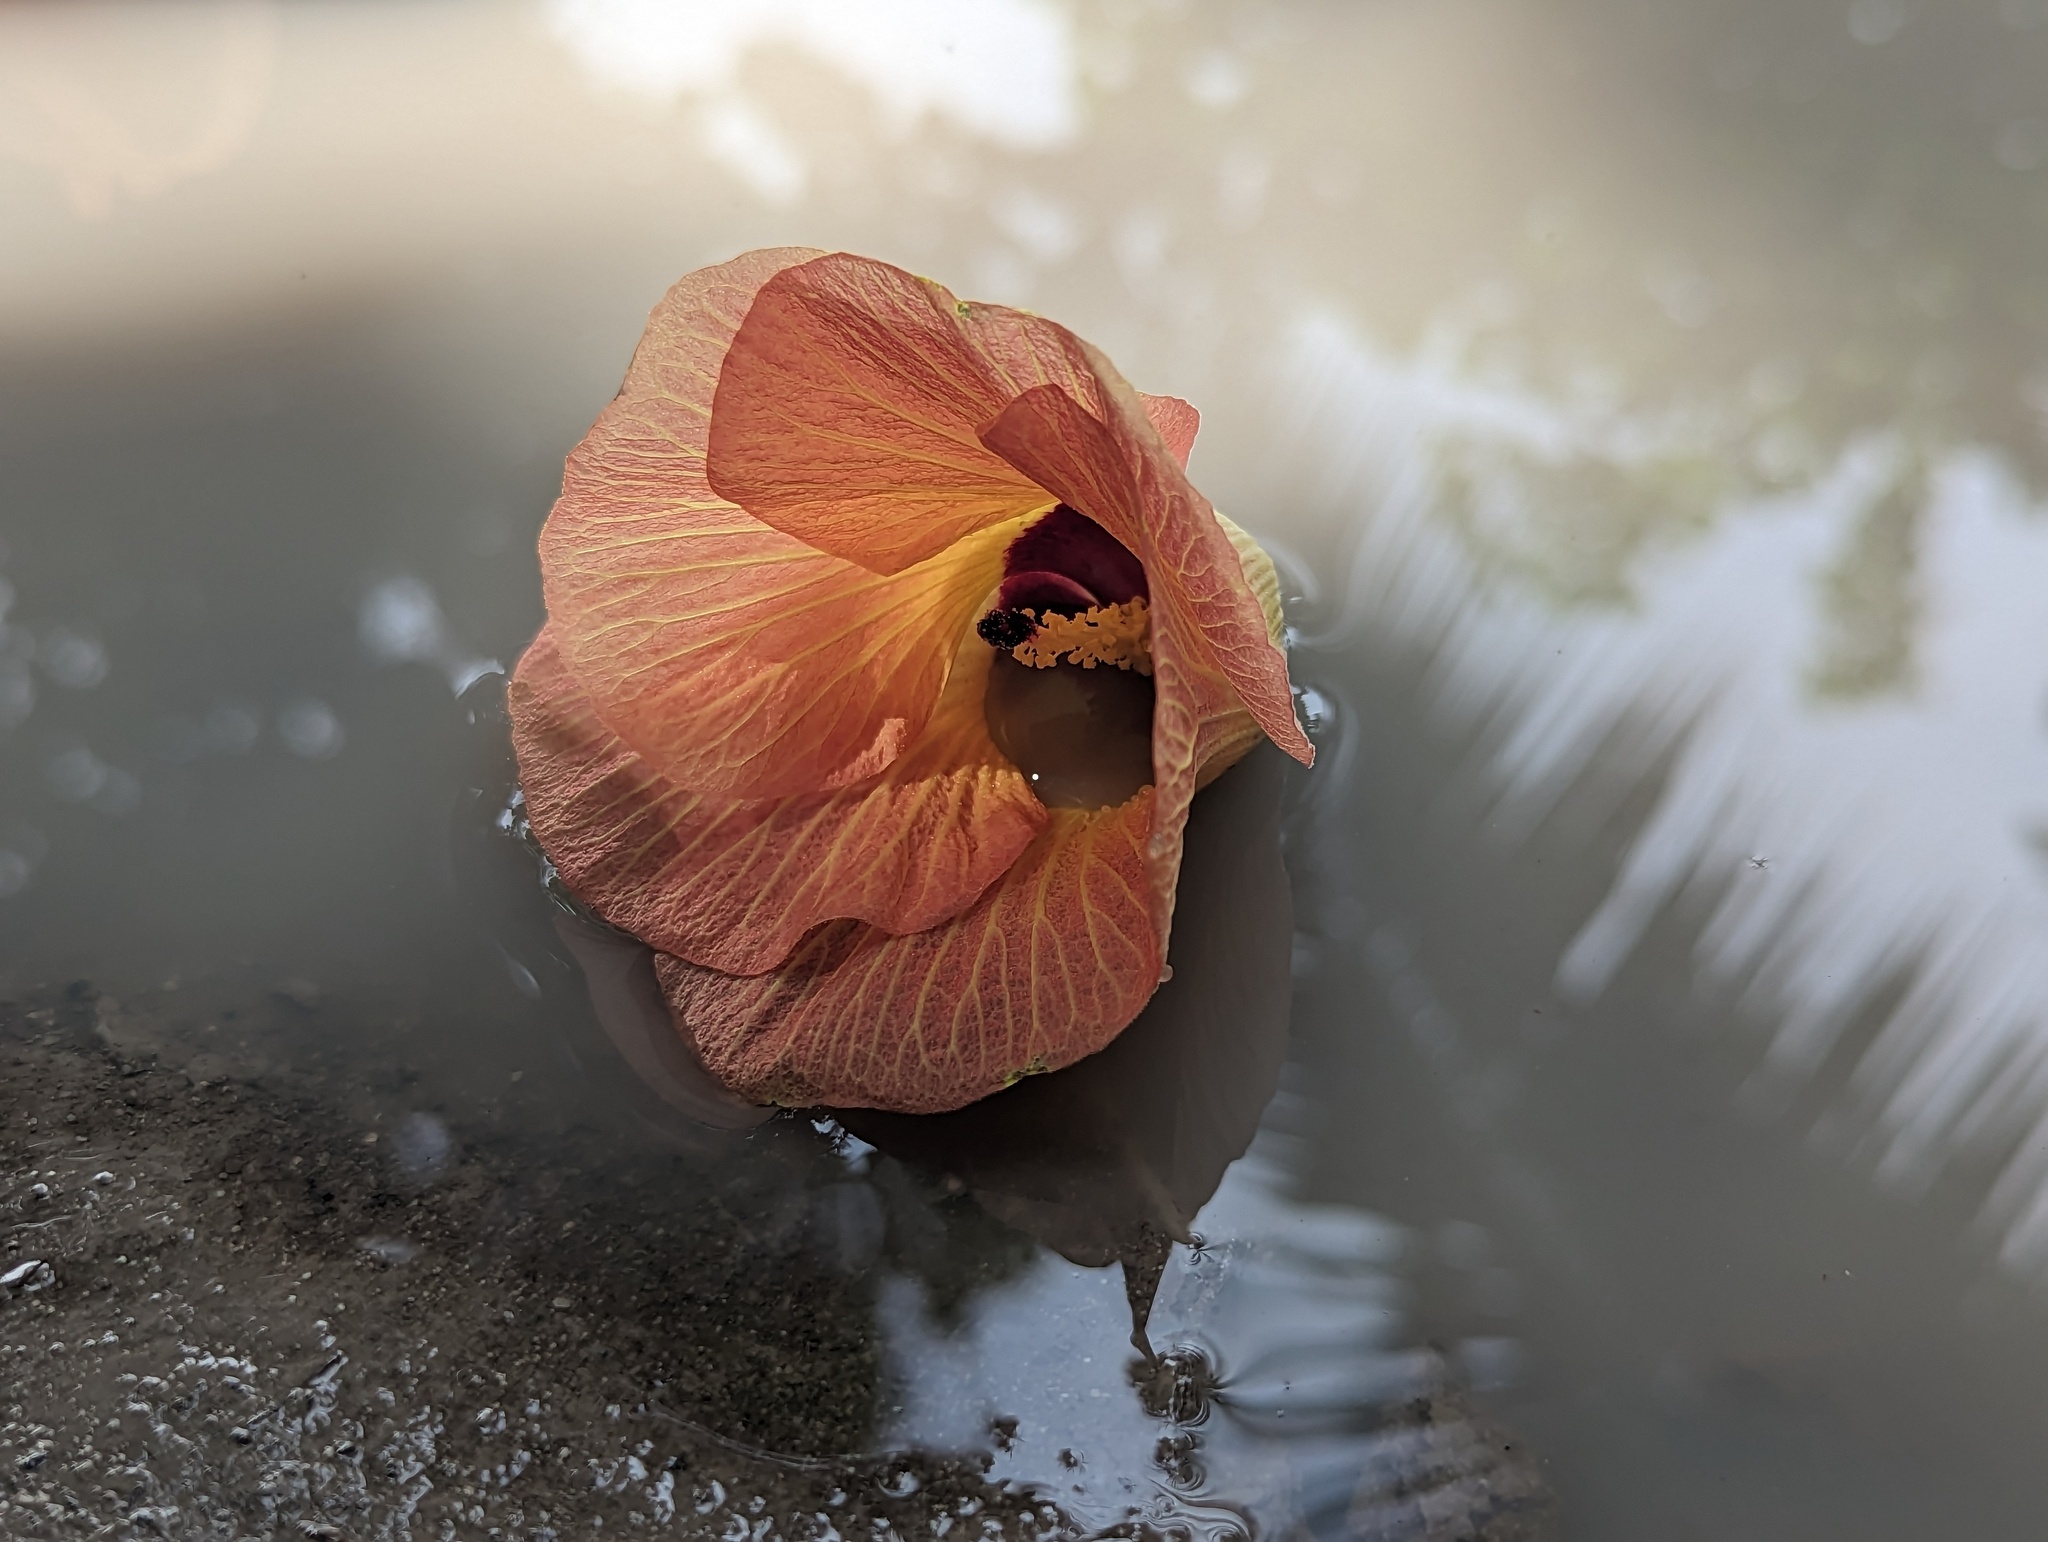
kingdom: Plantae
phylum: Tracheophyta
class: Magnoliopsida
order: Malvales
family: Malvaceae
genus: Talipariti
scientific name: Talipariti tiliaceum
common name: Sea hibiscus
